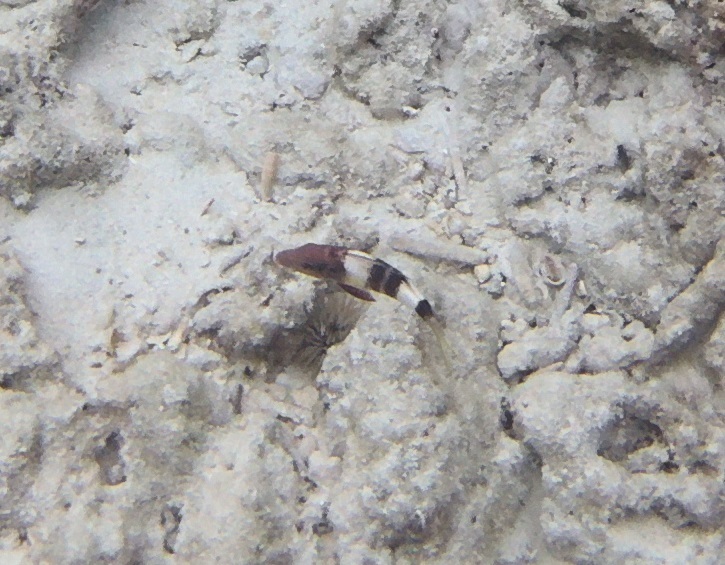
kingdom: Animalia
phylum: Chordata
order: Perciformes
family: Mullidae
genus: Parupeneus
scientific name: Parupeneus multifasciatus
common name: Manybar goatfish
